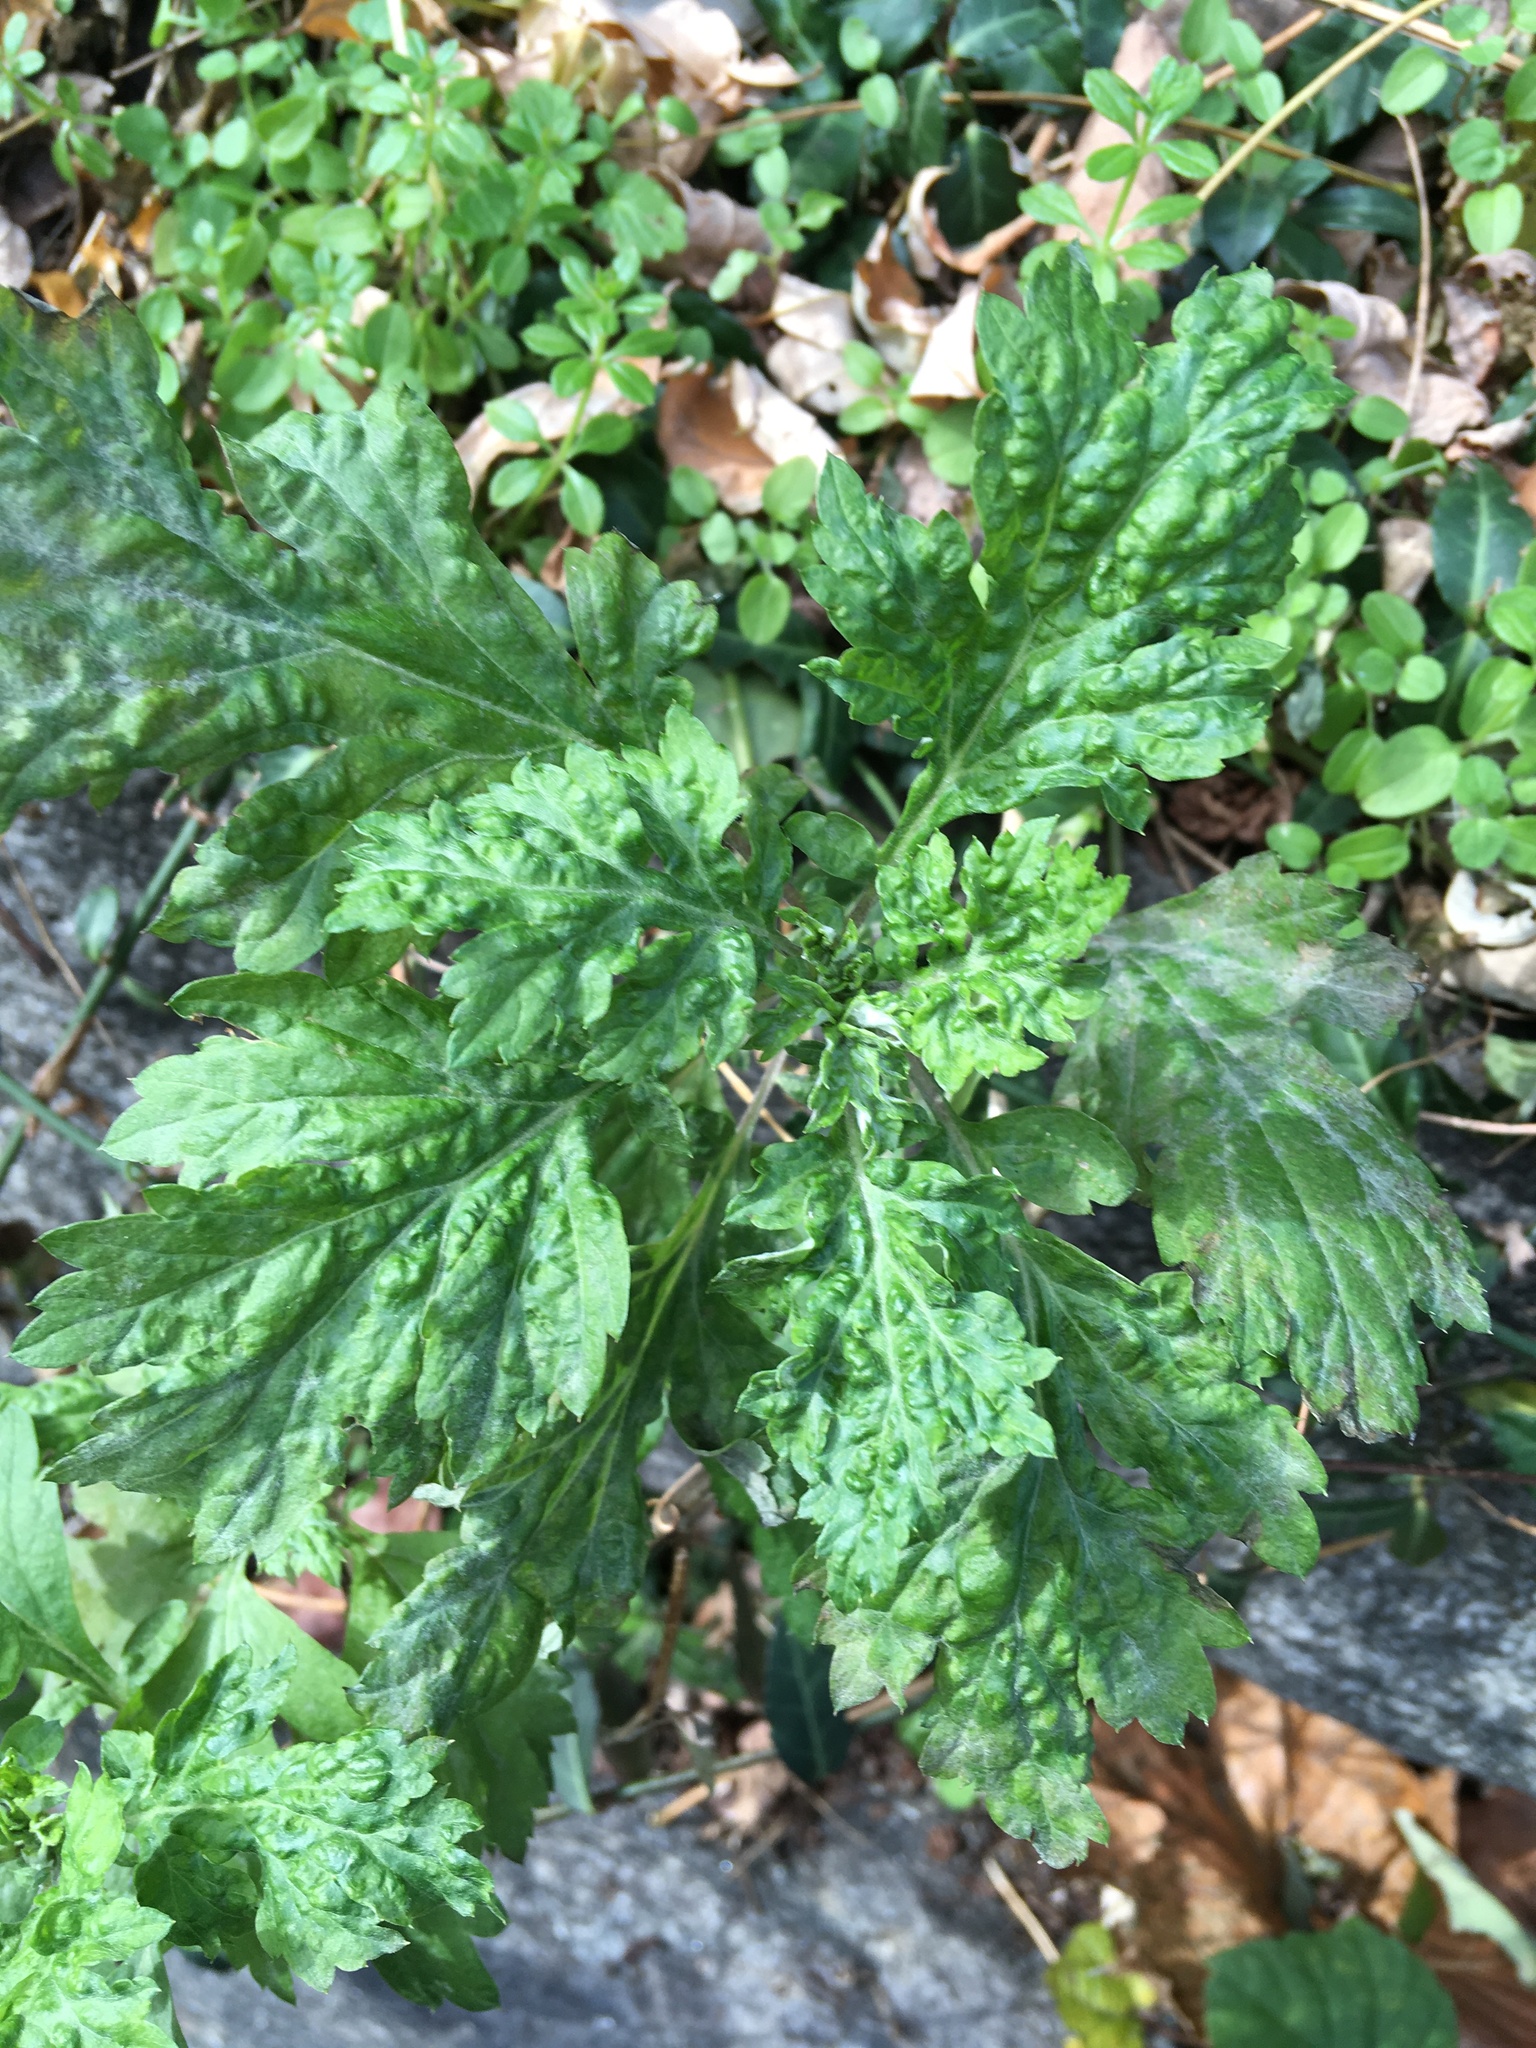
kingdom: Plantae
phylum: Tracheophyta
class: Magnoliopsida
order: Asterales
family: Asteraceae
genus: Artemisia
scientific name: Artemisia vulgaris
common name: Mugwort
